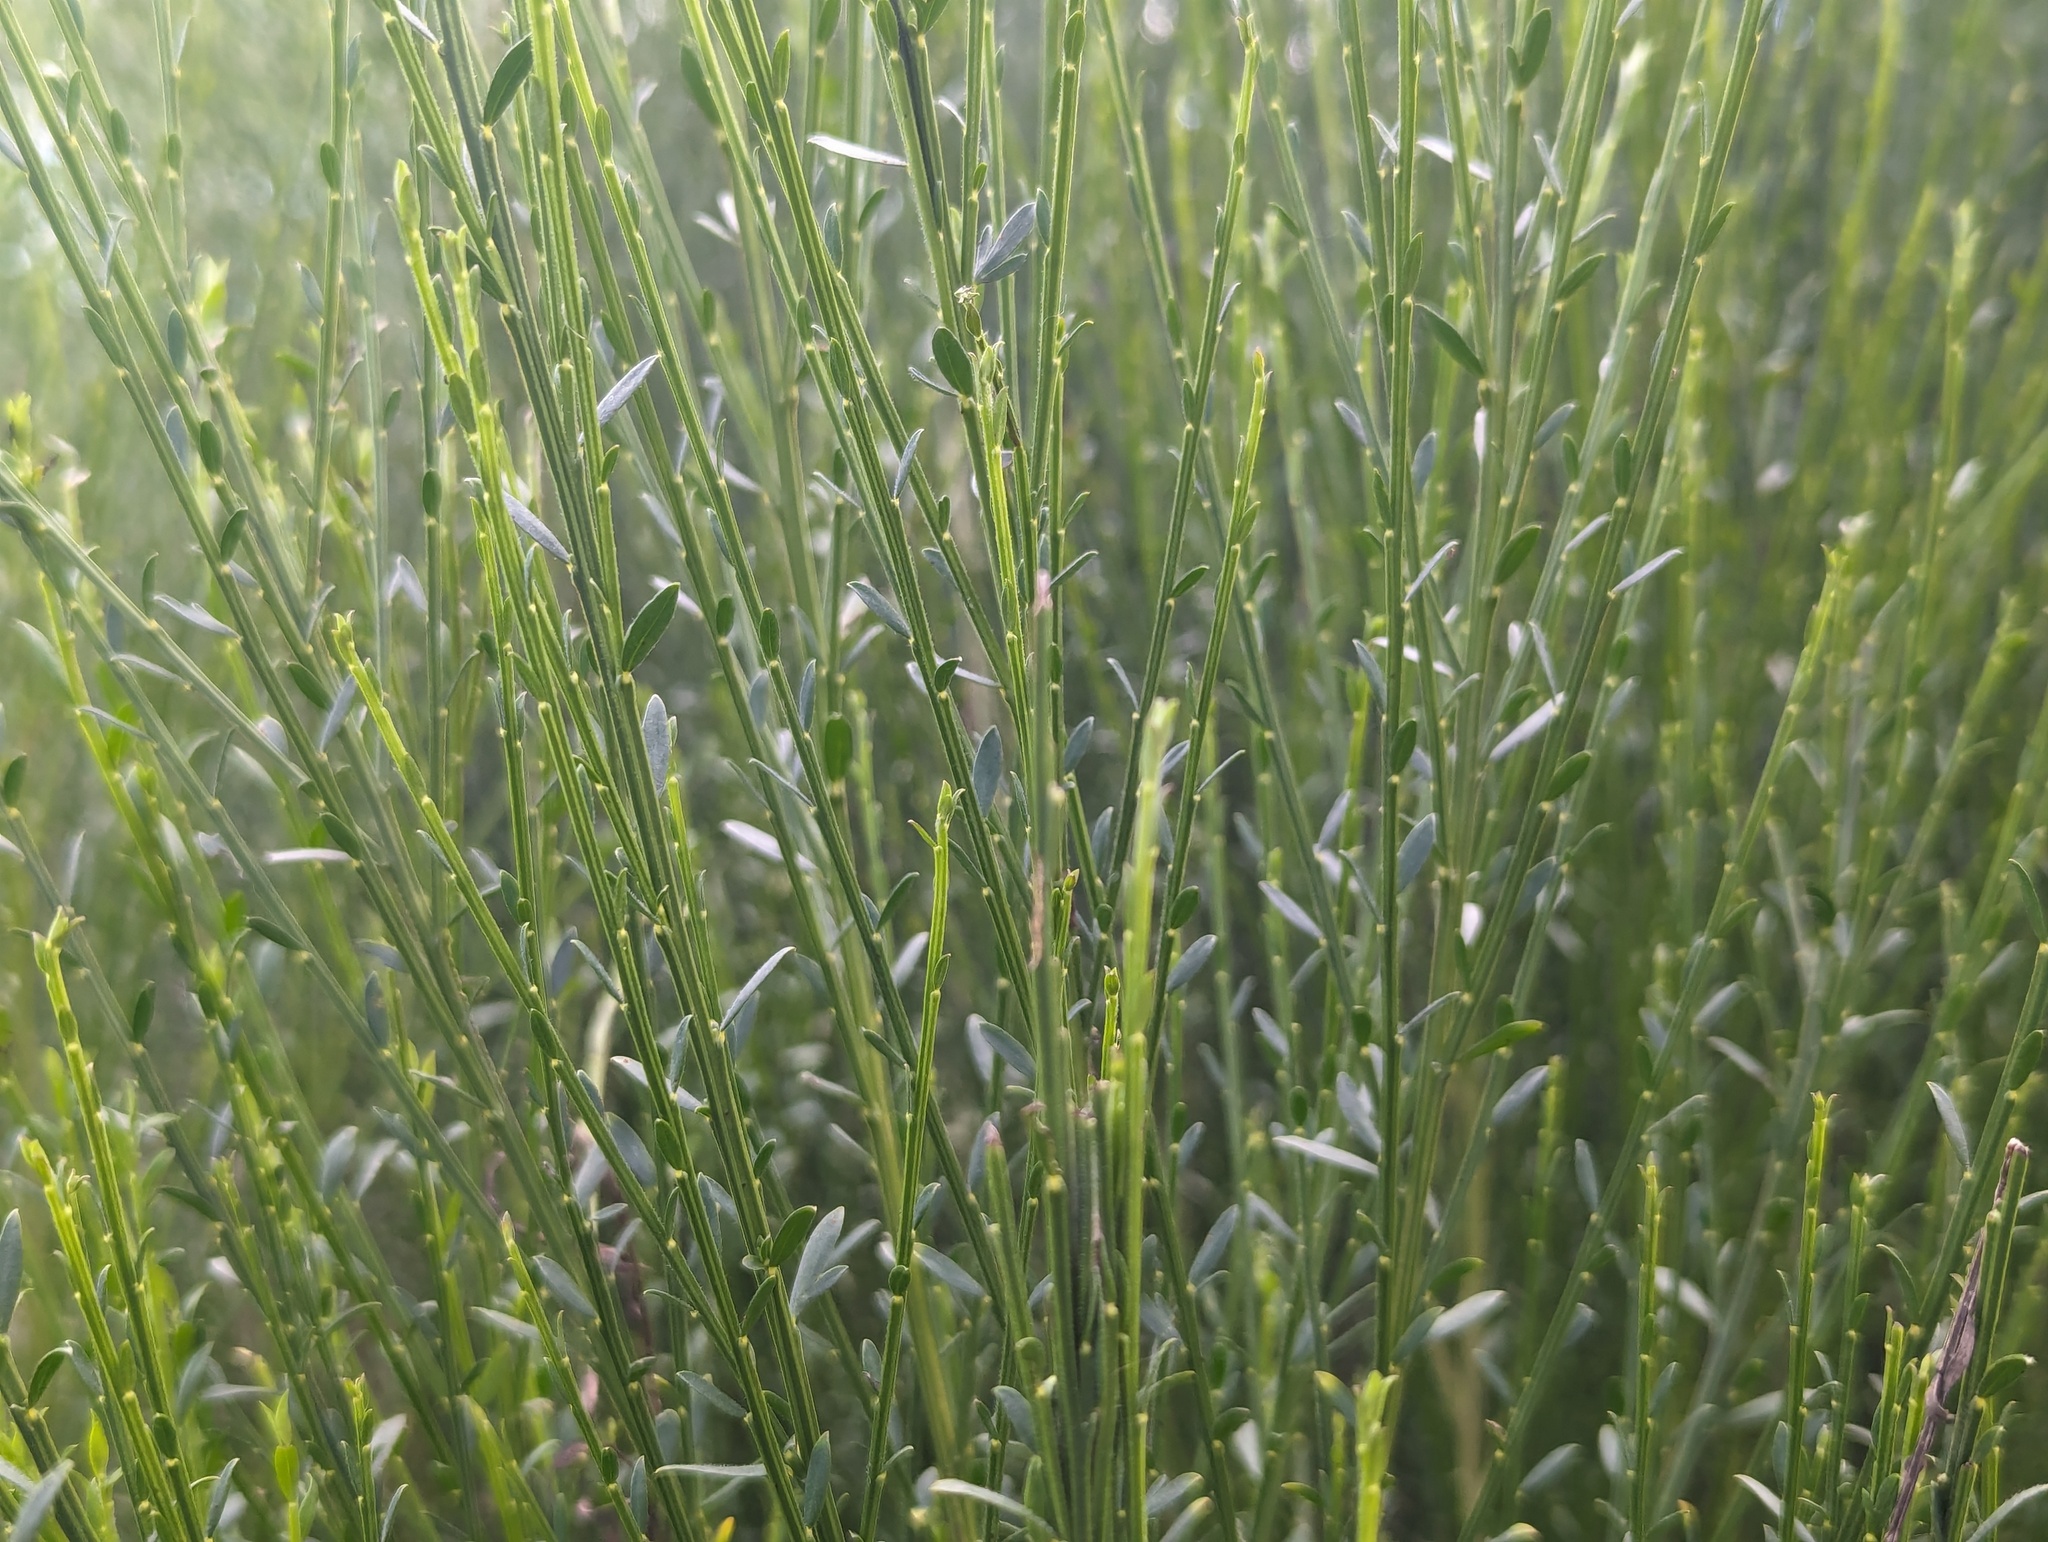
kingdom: Plantae
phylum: Tracheophyta
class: Magnoliopsida
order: Fabales
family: Fabaceae
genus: Cytisus
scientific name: Cytisus scoparius
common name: Scotch broom
